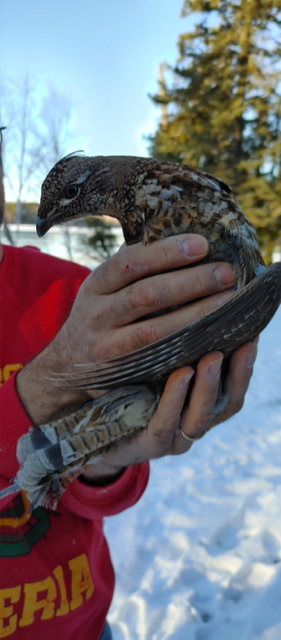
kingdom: Animalia
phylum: Chordata
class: Aves
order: Galliformes
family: Phasianidae
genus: Bonasa
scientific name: Bonasa umbellus
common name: Ruffed grouse
